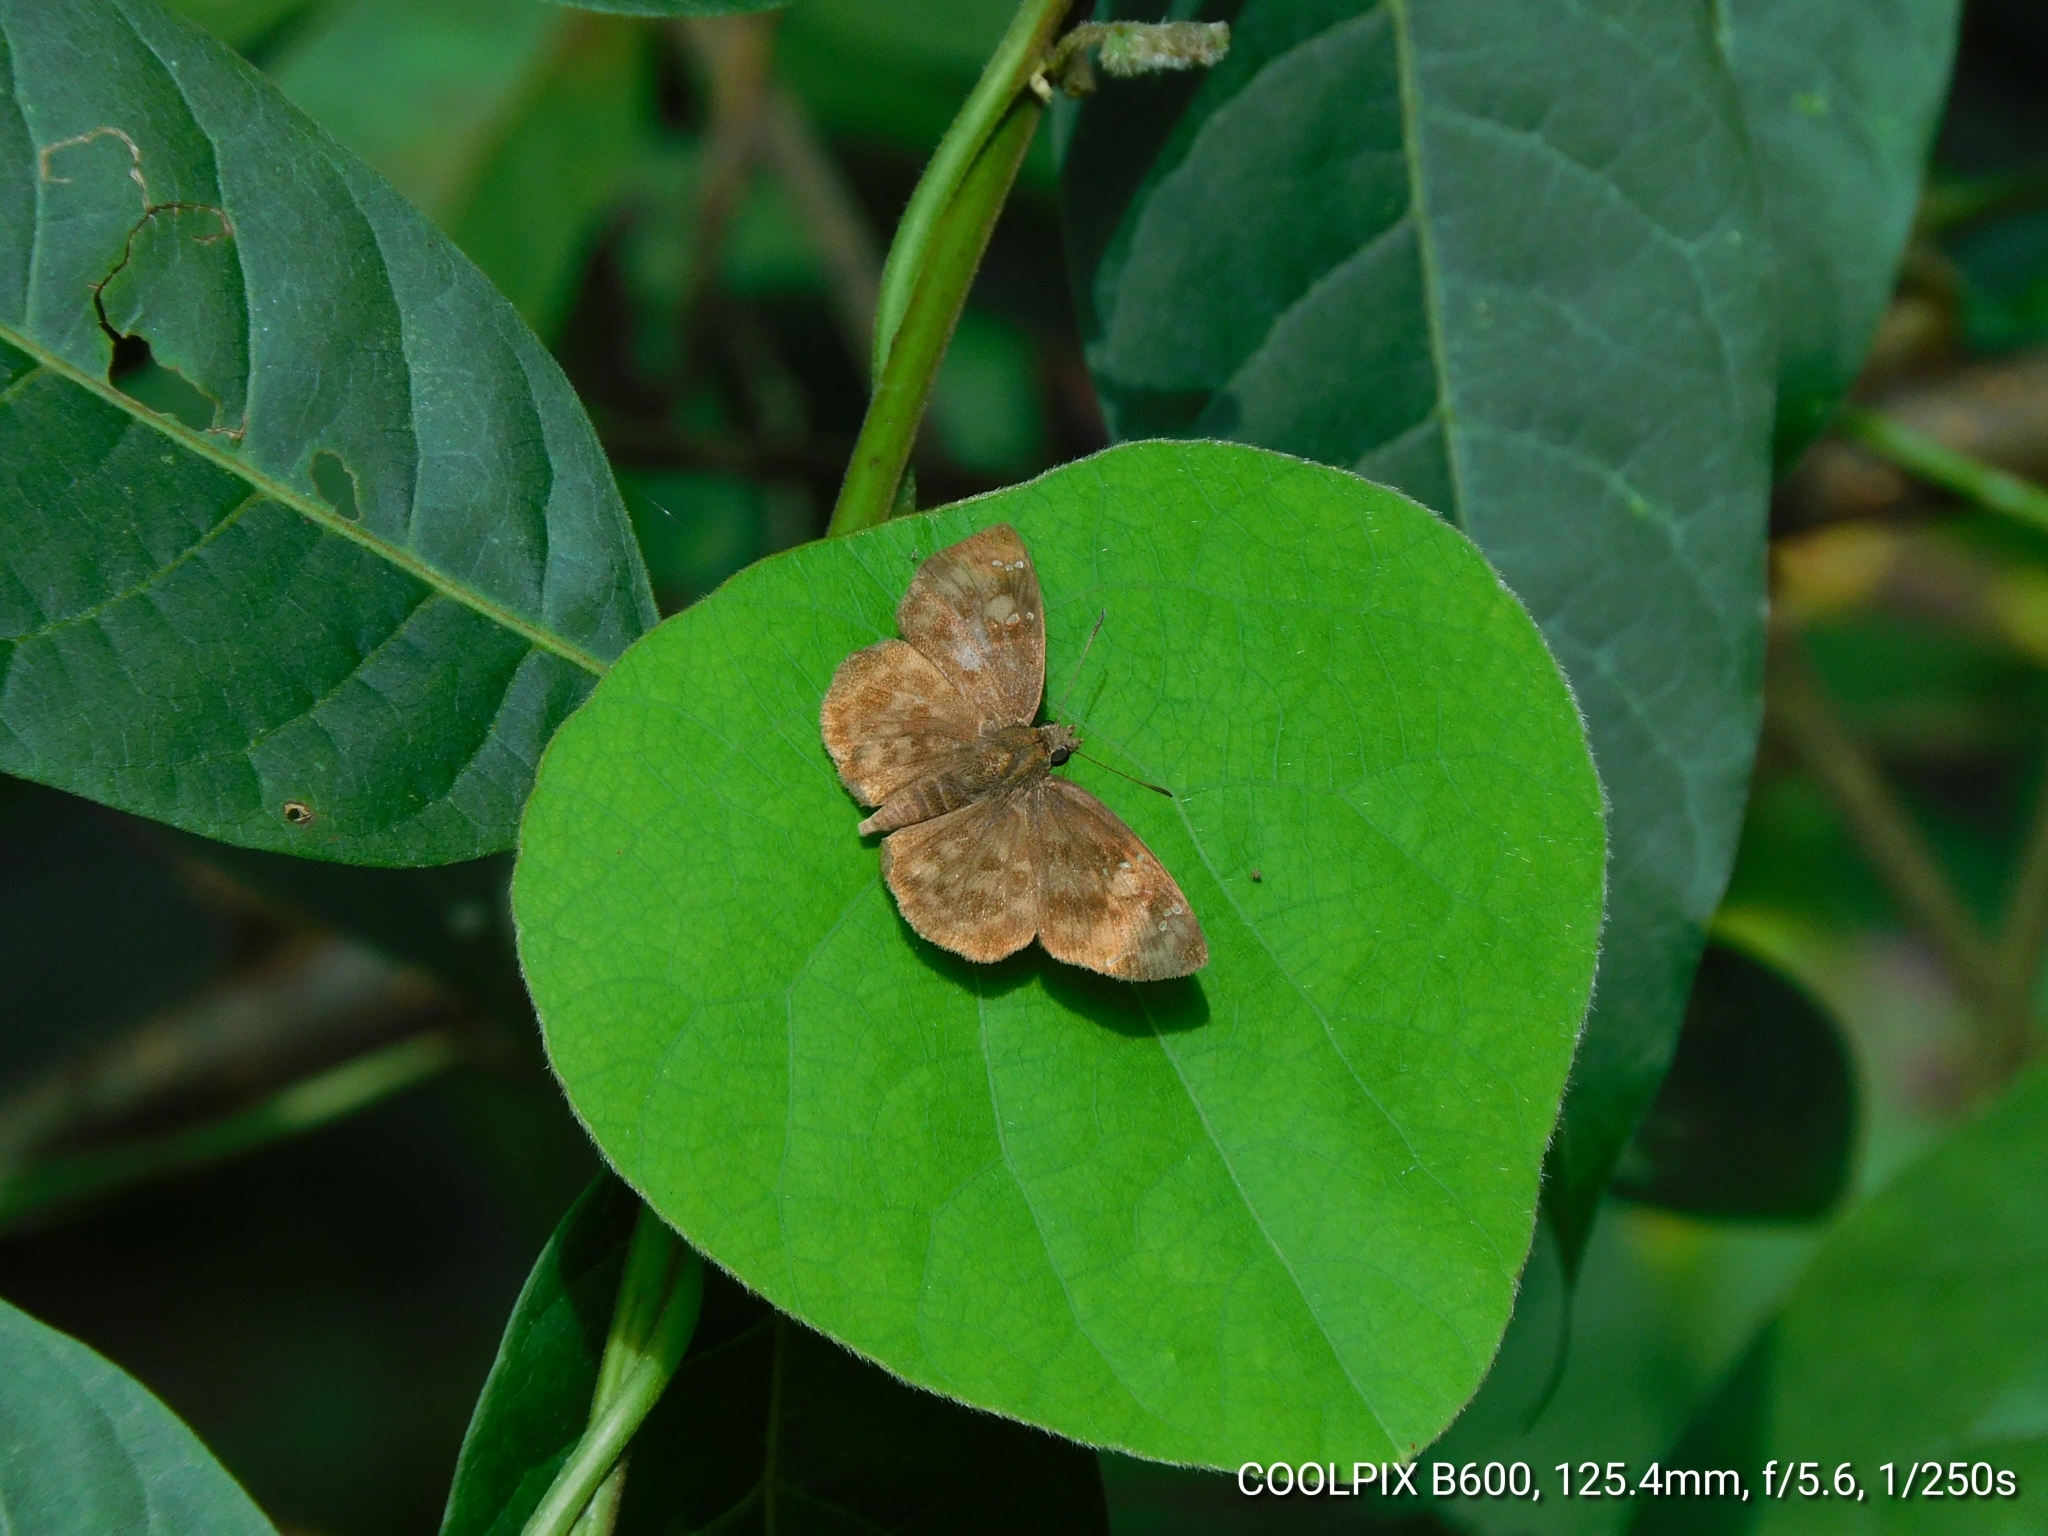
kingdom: Animalia
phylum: Arthropoda
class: Insecta
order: Lepidoptera
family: Hesperiidae
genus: Sarangesa
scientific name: Sarangesa dasahara
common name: Common small flat
